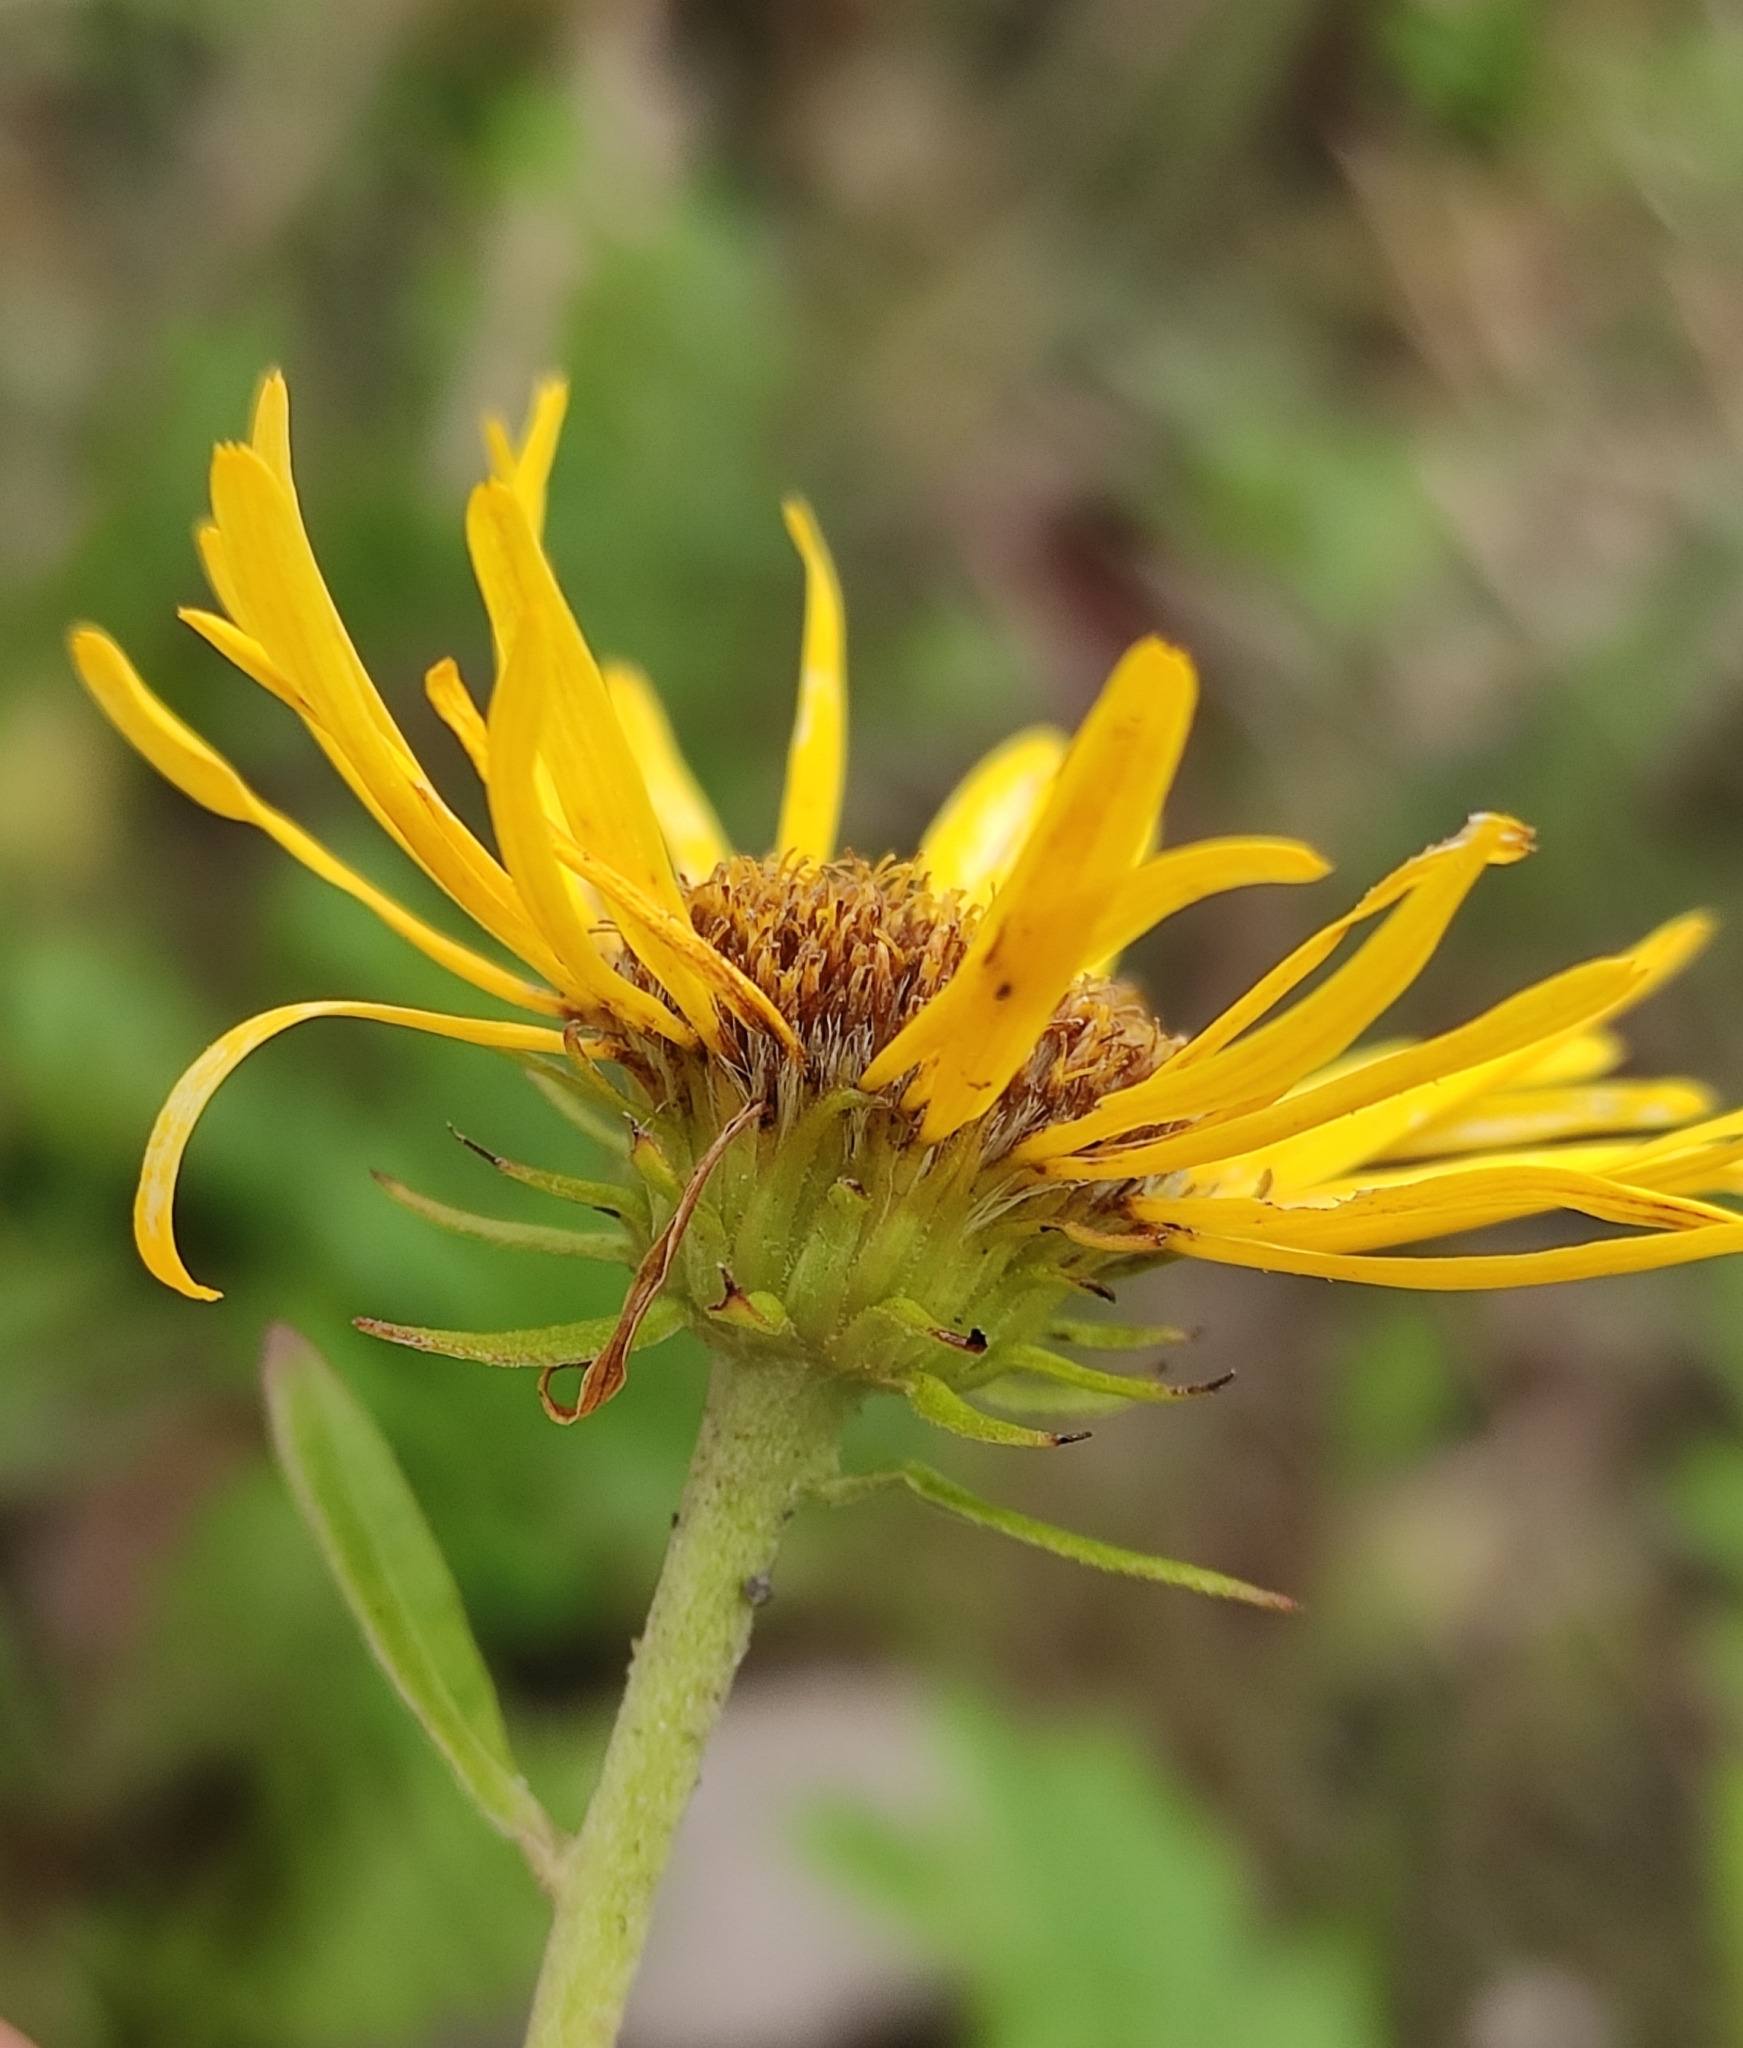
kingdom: Plantae
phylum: Tracheophyta
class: Magnoliopsida
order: Asterales
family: Asteraceae
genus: Pentanema
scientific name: Pentanema salicinum
